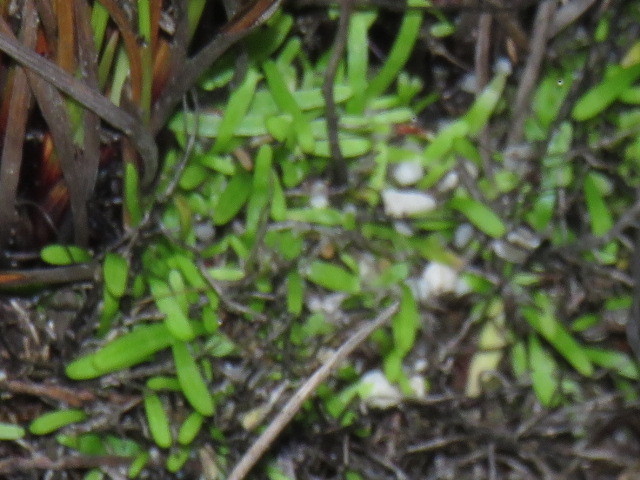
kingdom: Plantae
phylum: Tracheophyta
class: Magnoliopsida
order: Lamiales
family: Lentibulariaceae
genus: Utricularia
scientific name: Utricularia bisquamata
